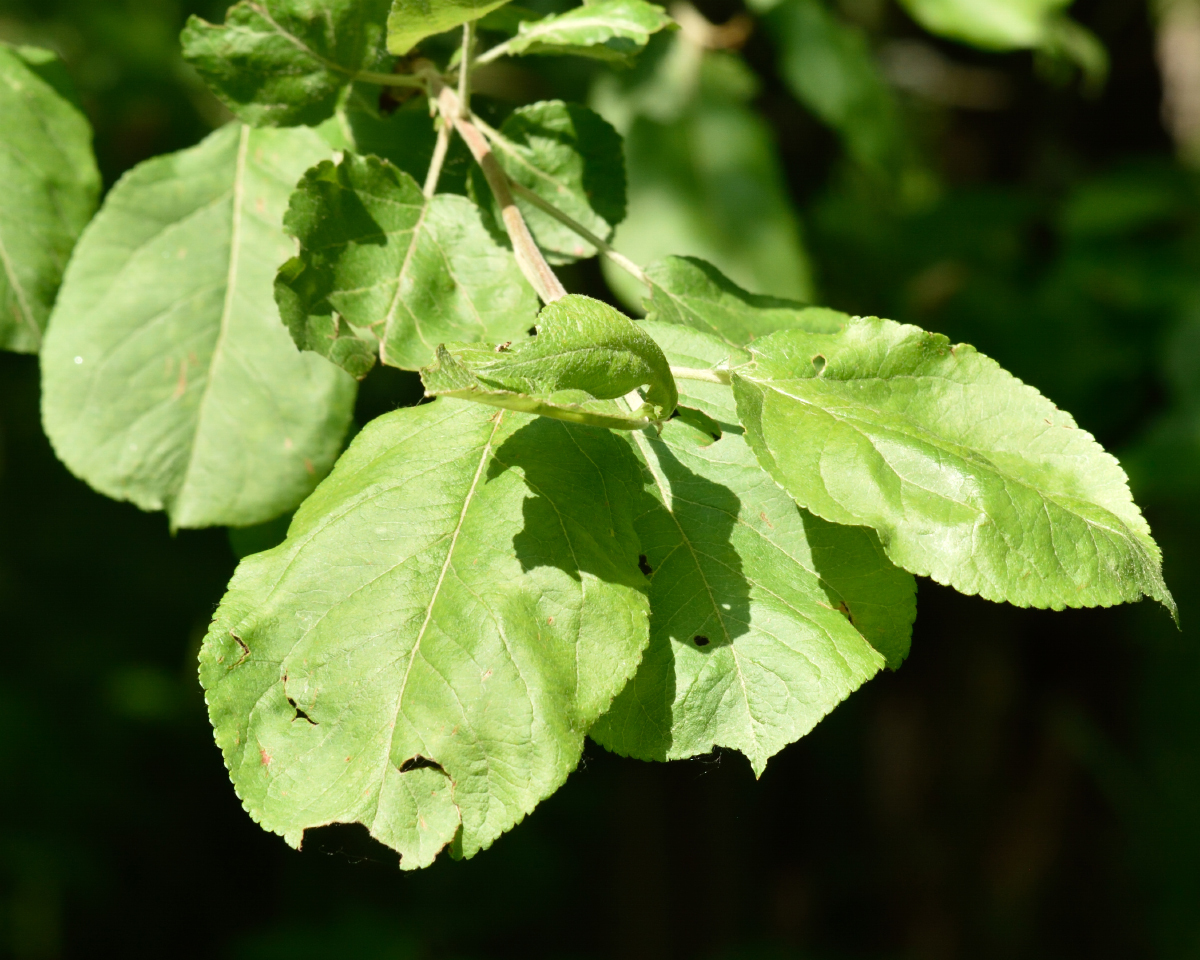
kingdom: Plantae
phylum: Tracheophyta
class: Magnoliopsida
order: Rosales
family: Rosaceae
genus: Malus
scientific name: Malus domestica
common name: Apple
